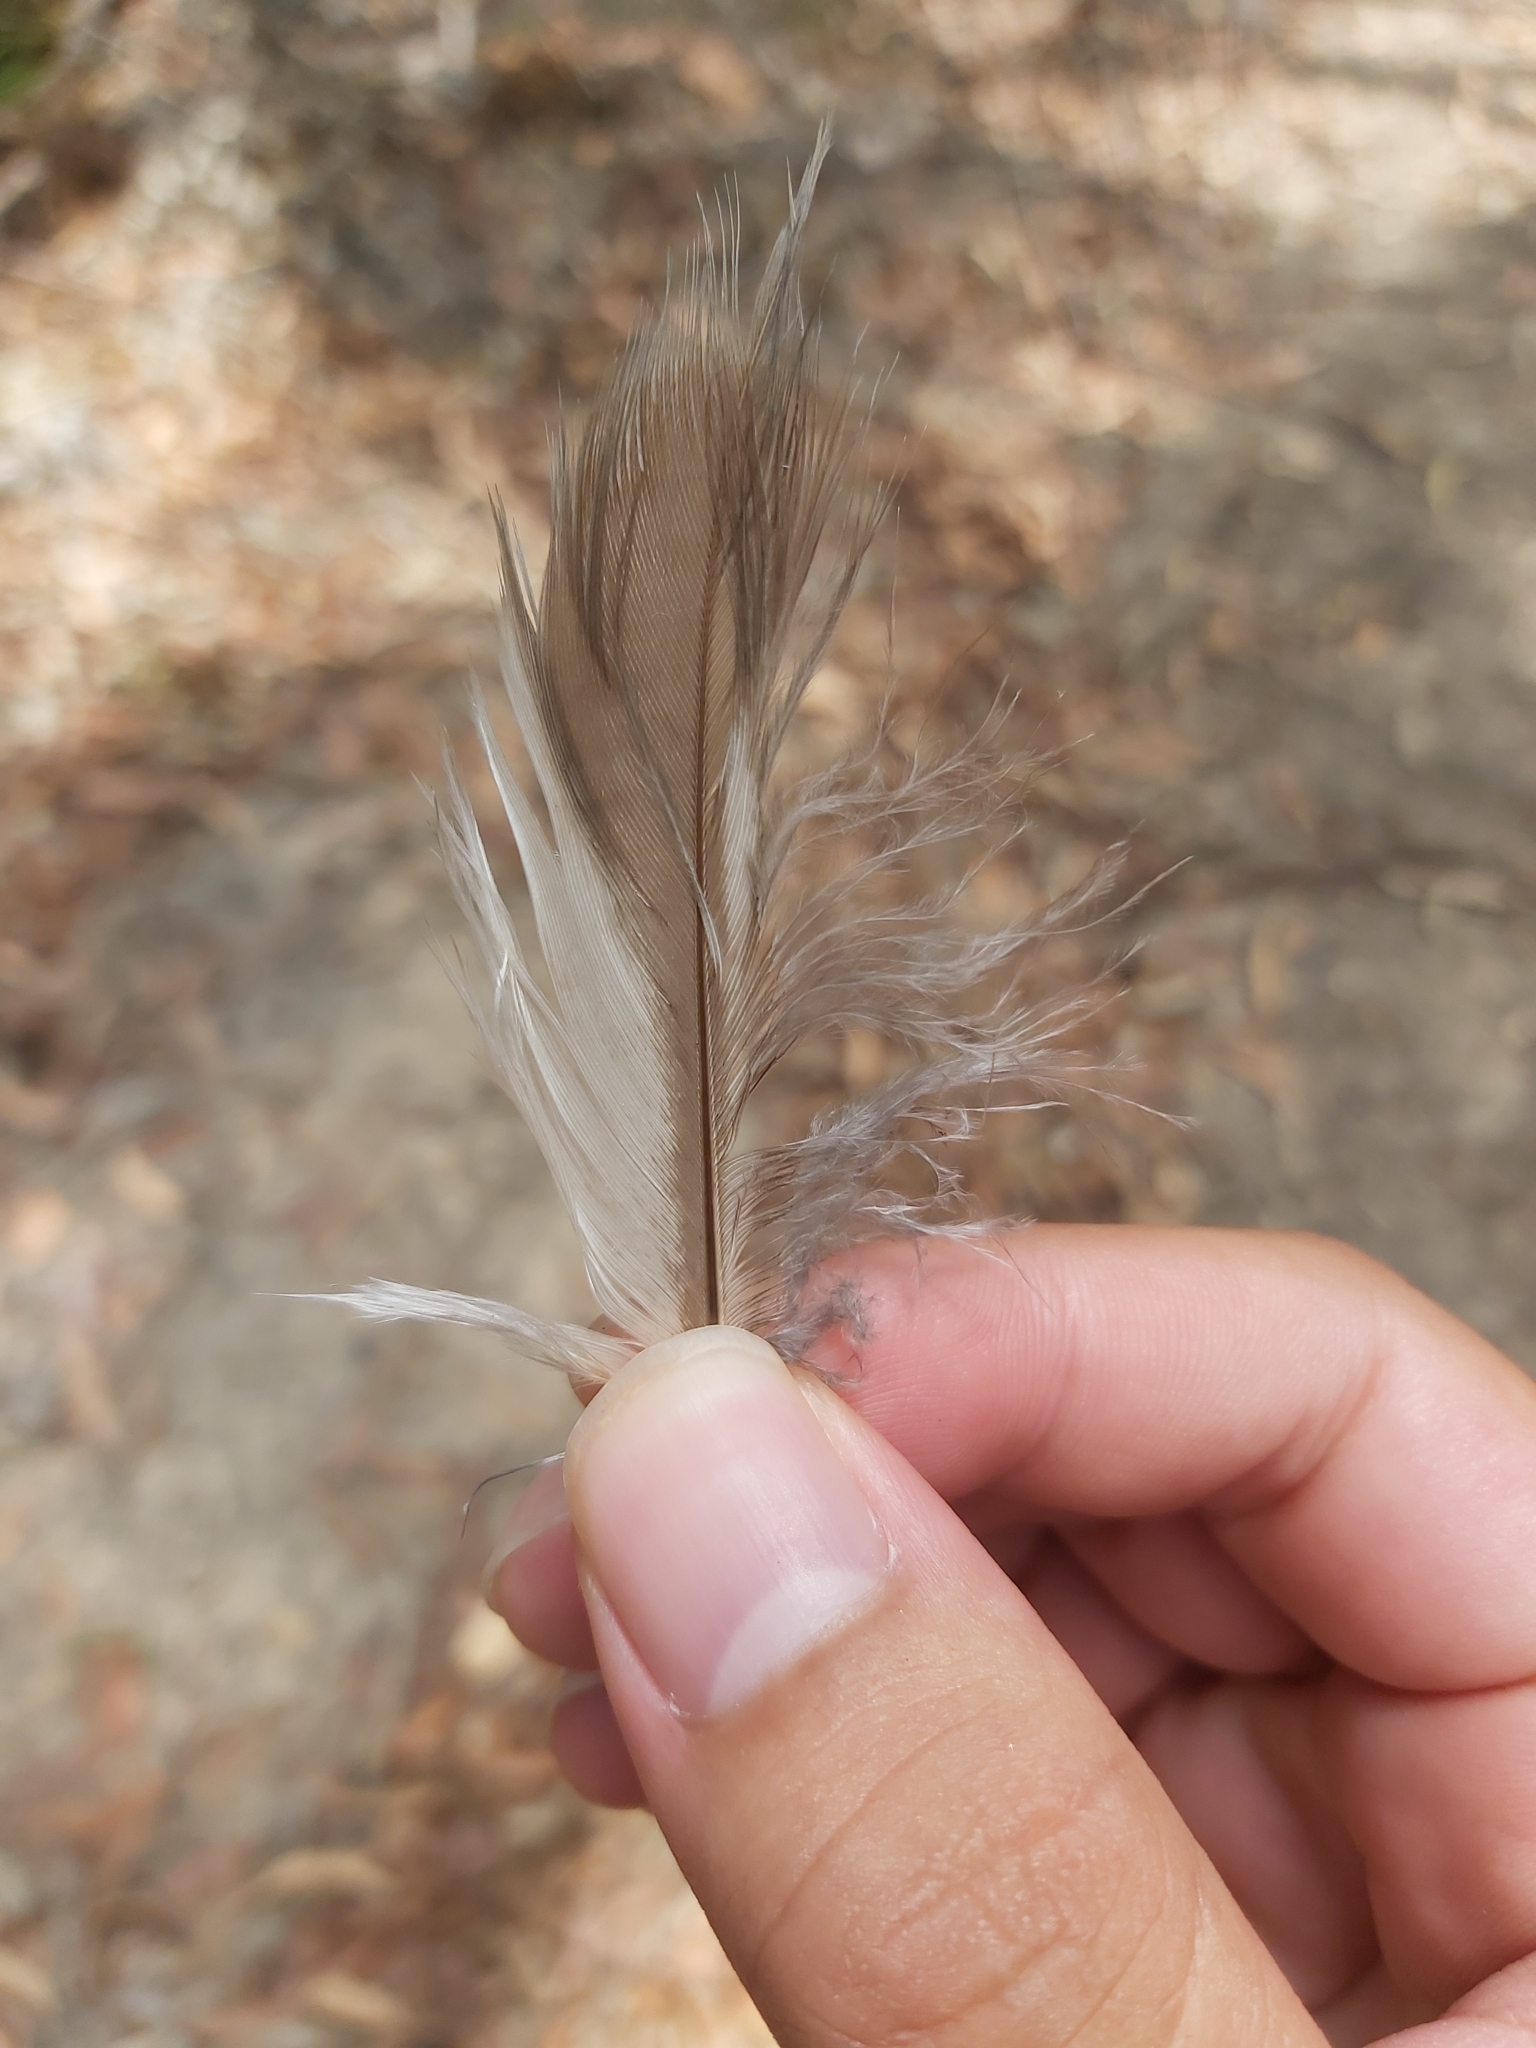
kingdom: Animalia
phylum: Chordata
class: Aves
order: Coraciiformes
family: Alcedinidae
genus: Dacelo
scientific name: Dacelo novaeguineae
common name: Laughing kookaburra
